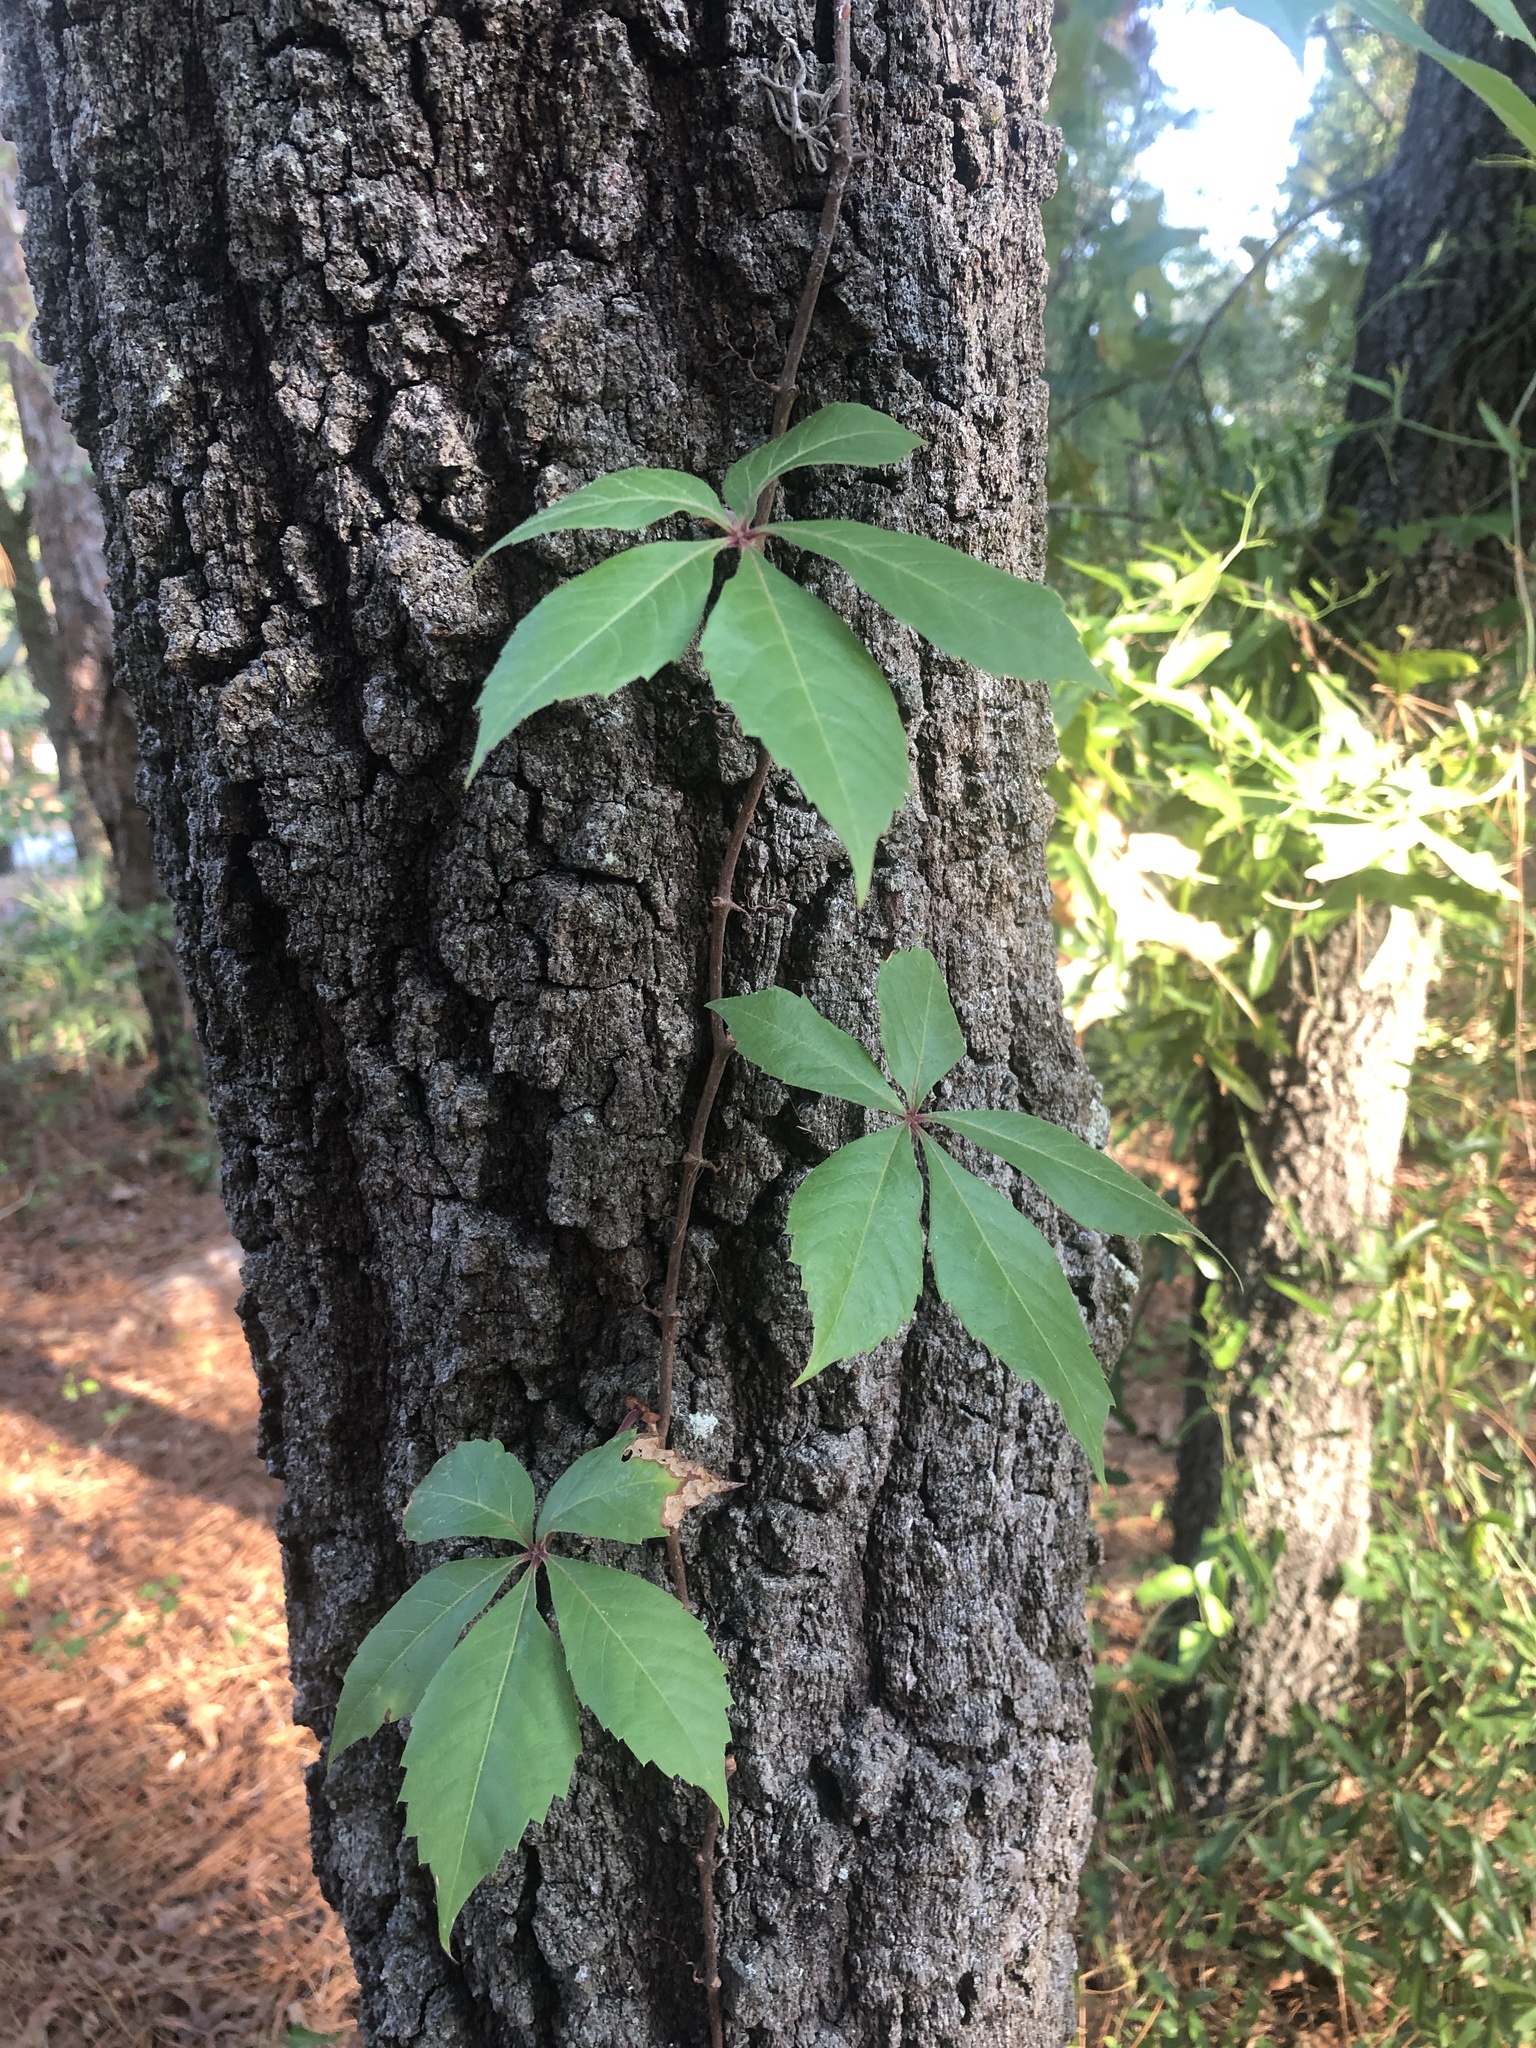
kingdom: Plantae
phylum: Tracheophyta
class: Magnoliopsida
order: Vitales
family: Vitaceae
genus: Parthenocissus
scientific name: Parthenocissus quinquefolia
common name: Virginia-creeper
